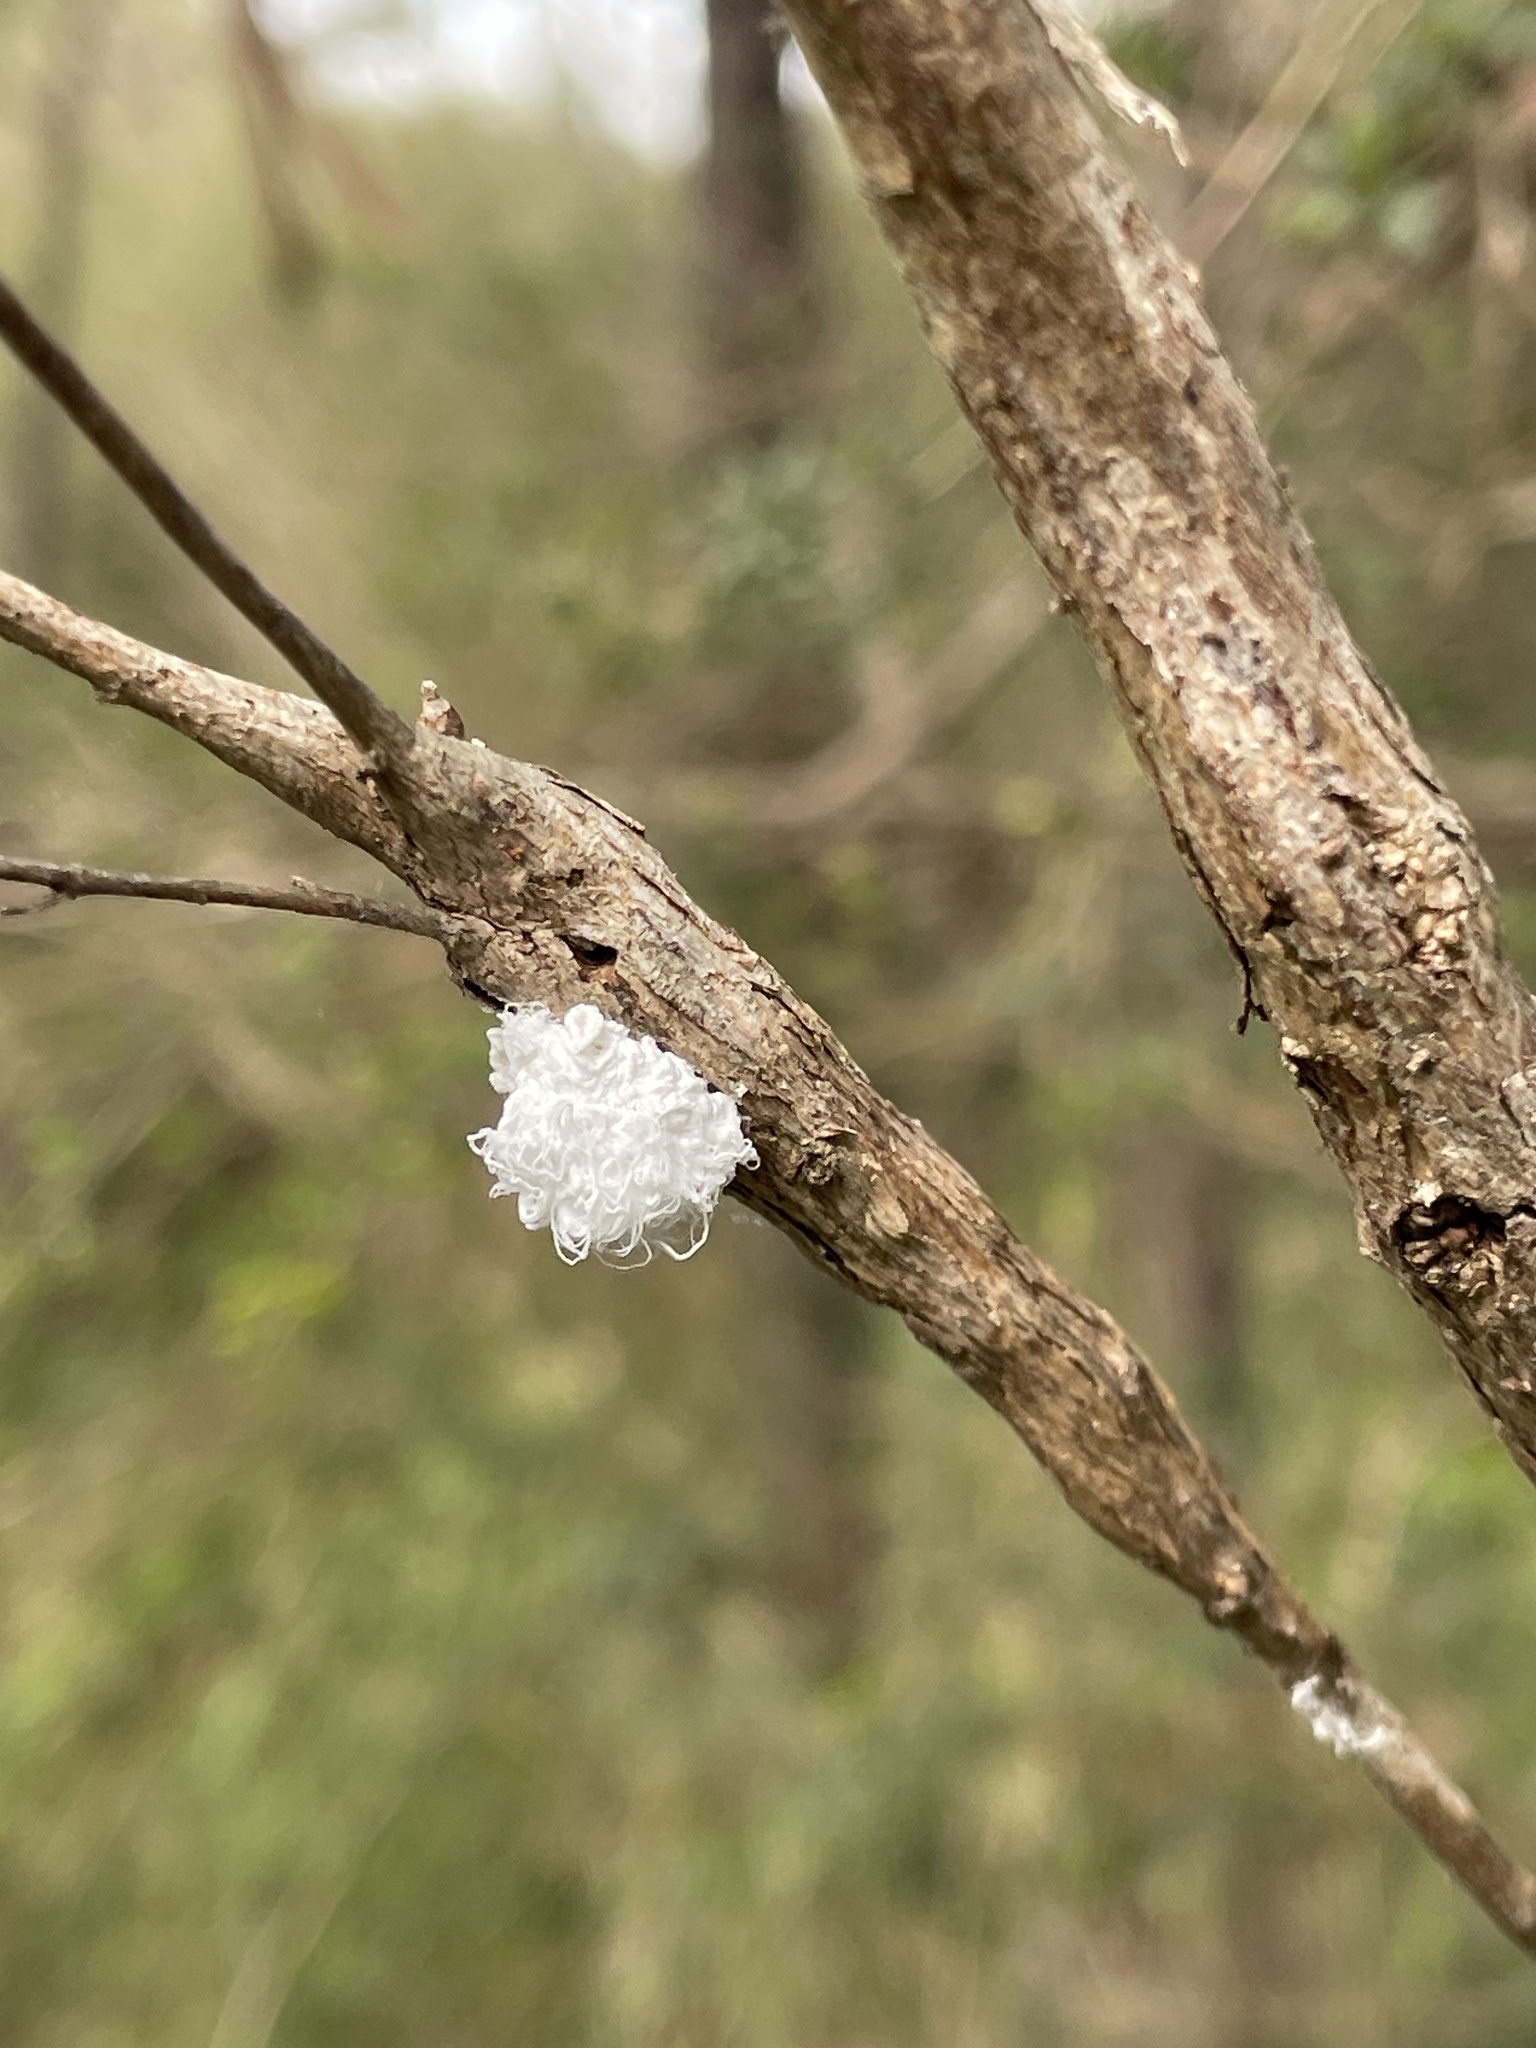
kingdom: Animalia
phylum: Arthropoda
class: Insecta
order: Hemiptera
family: Asterolecaniidae
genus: Callococcus
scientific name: Callococcus
